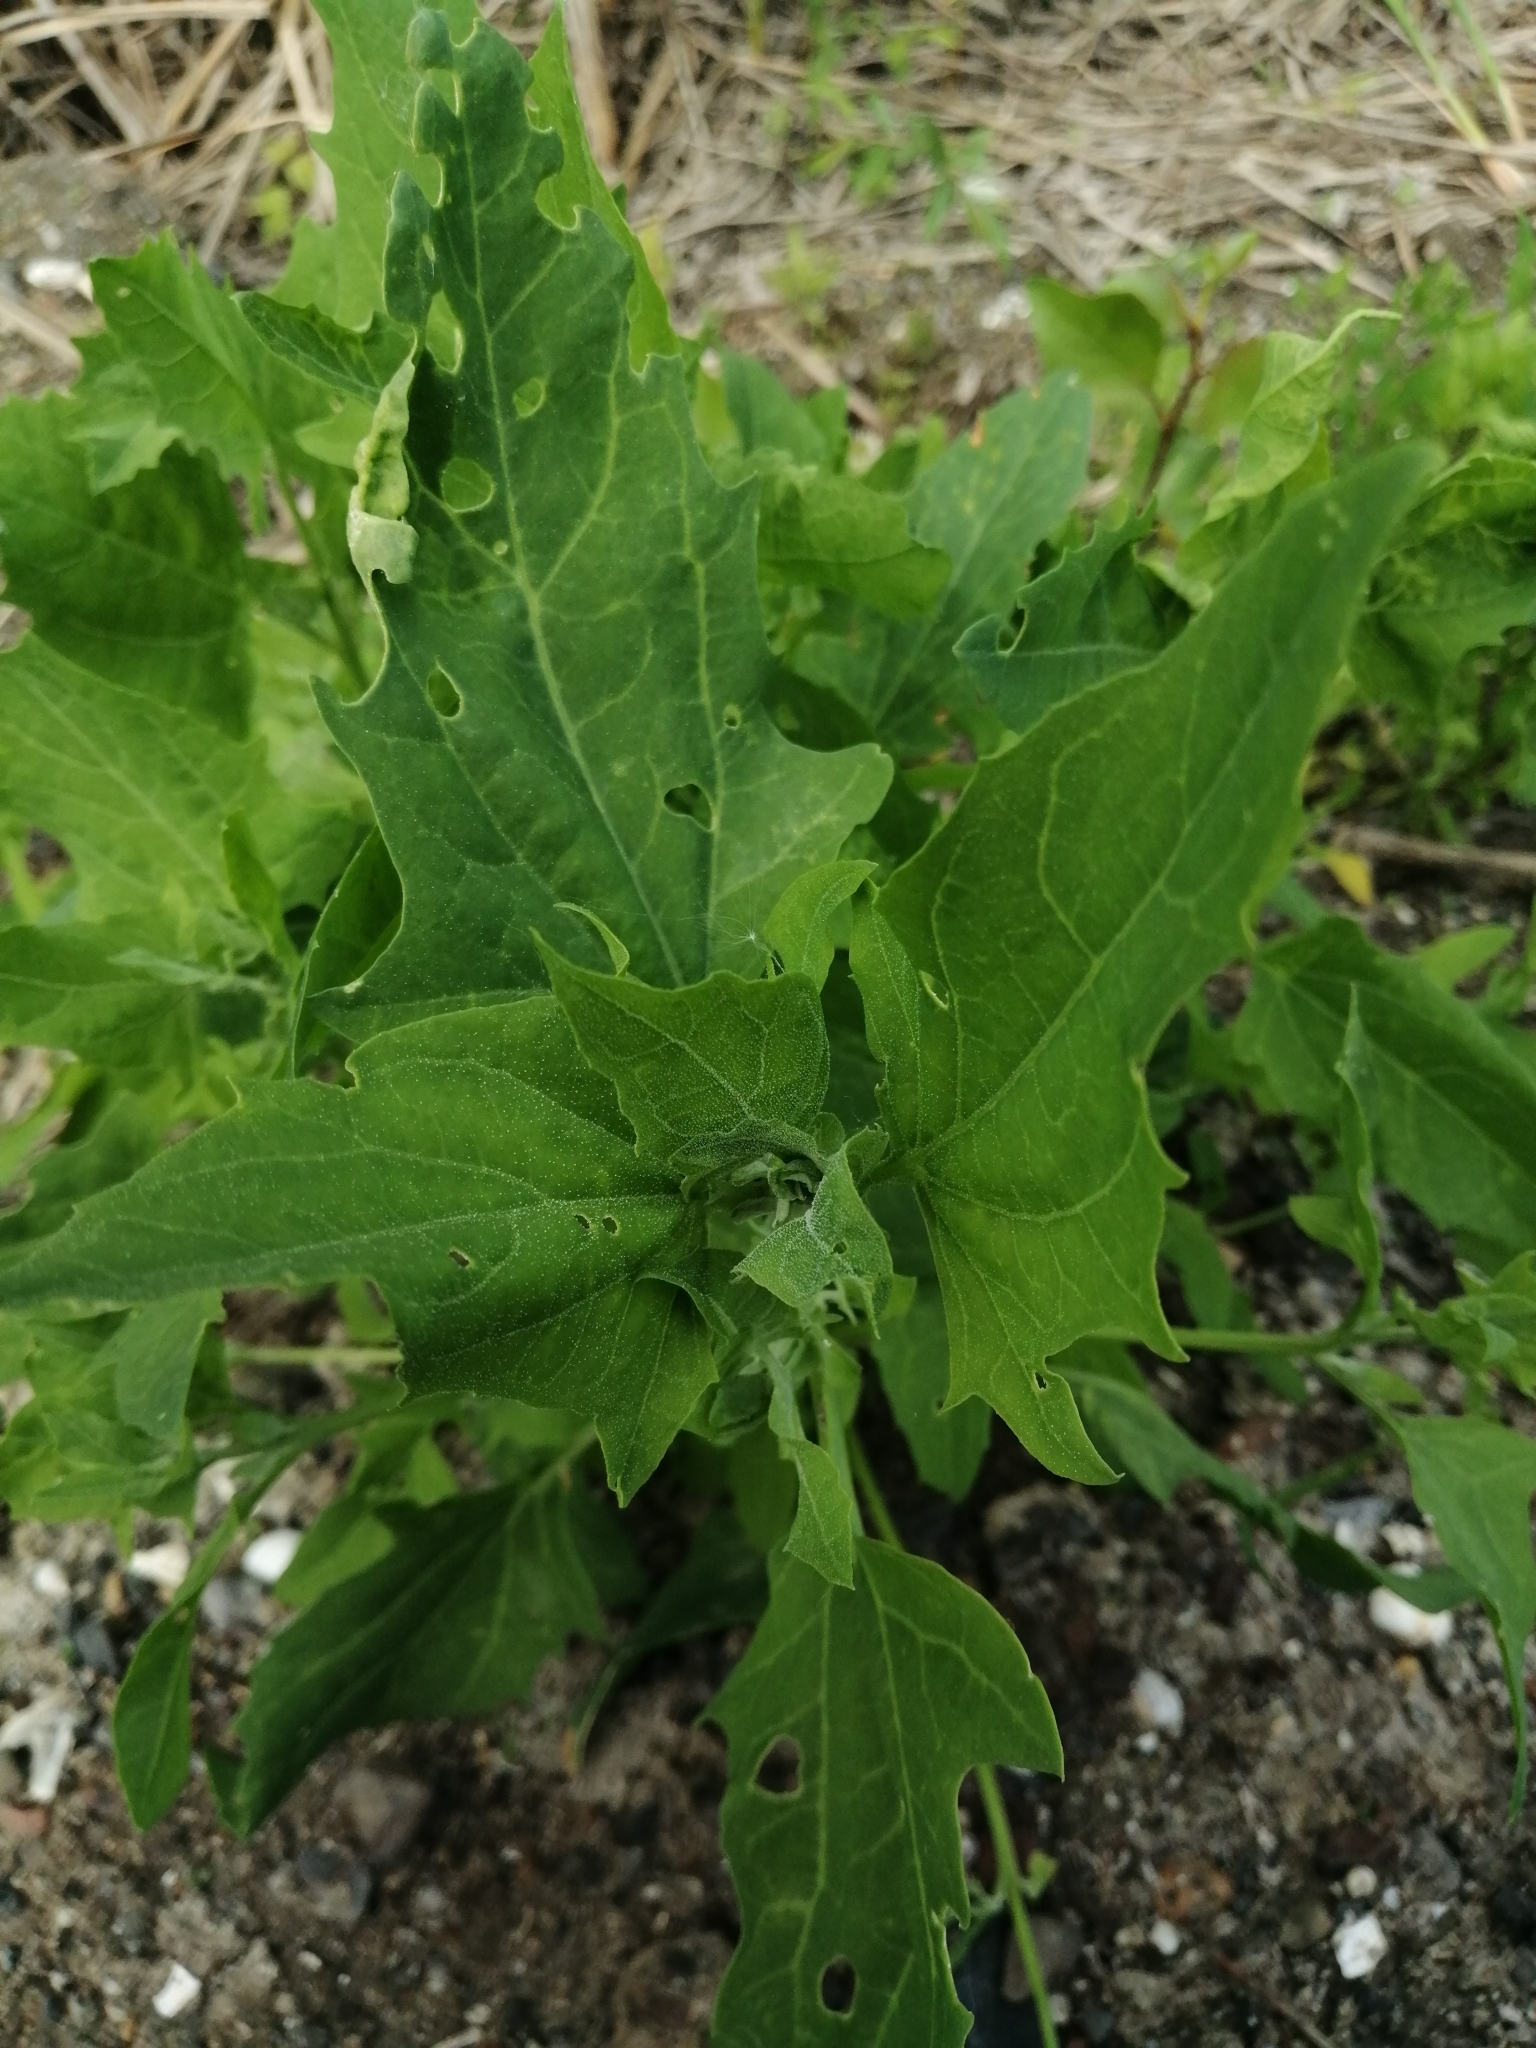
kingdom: Plantae
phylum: Tracheophyta
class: Magnoliopsida
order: Caryophyllales
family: Amaranthaceae
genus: Atriplex
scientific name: Atriplex prostrata
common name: Spear-leaved orache
